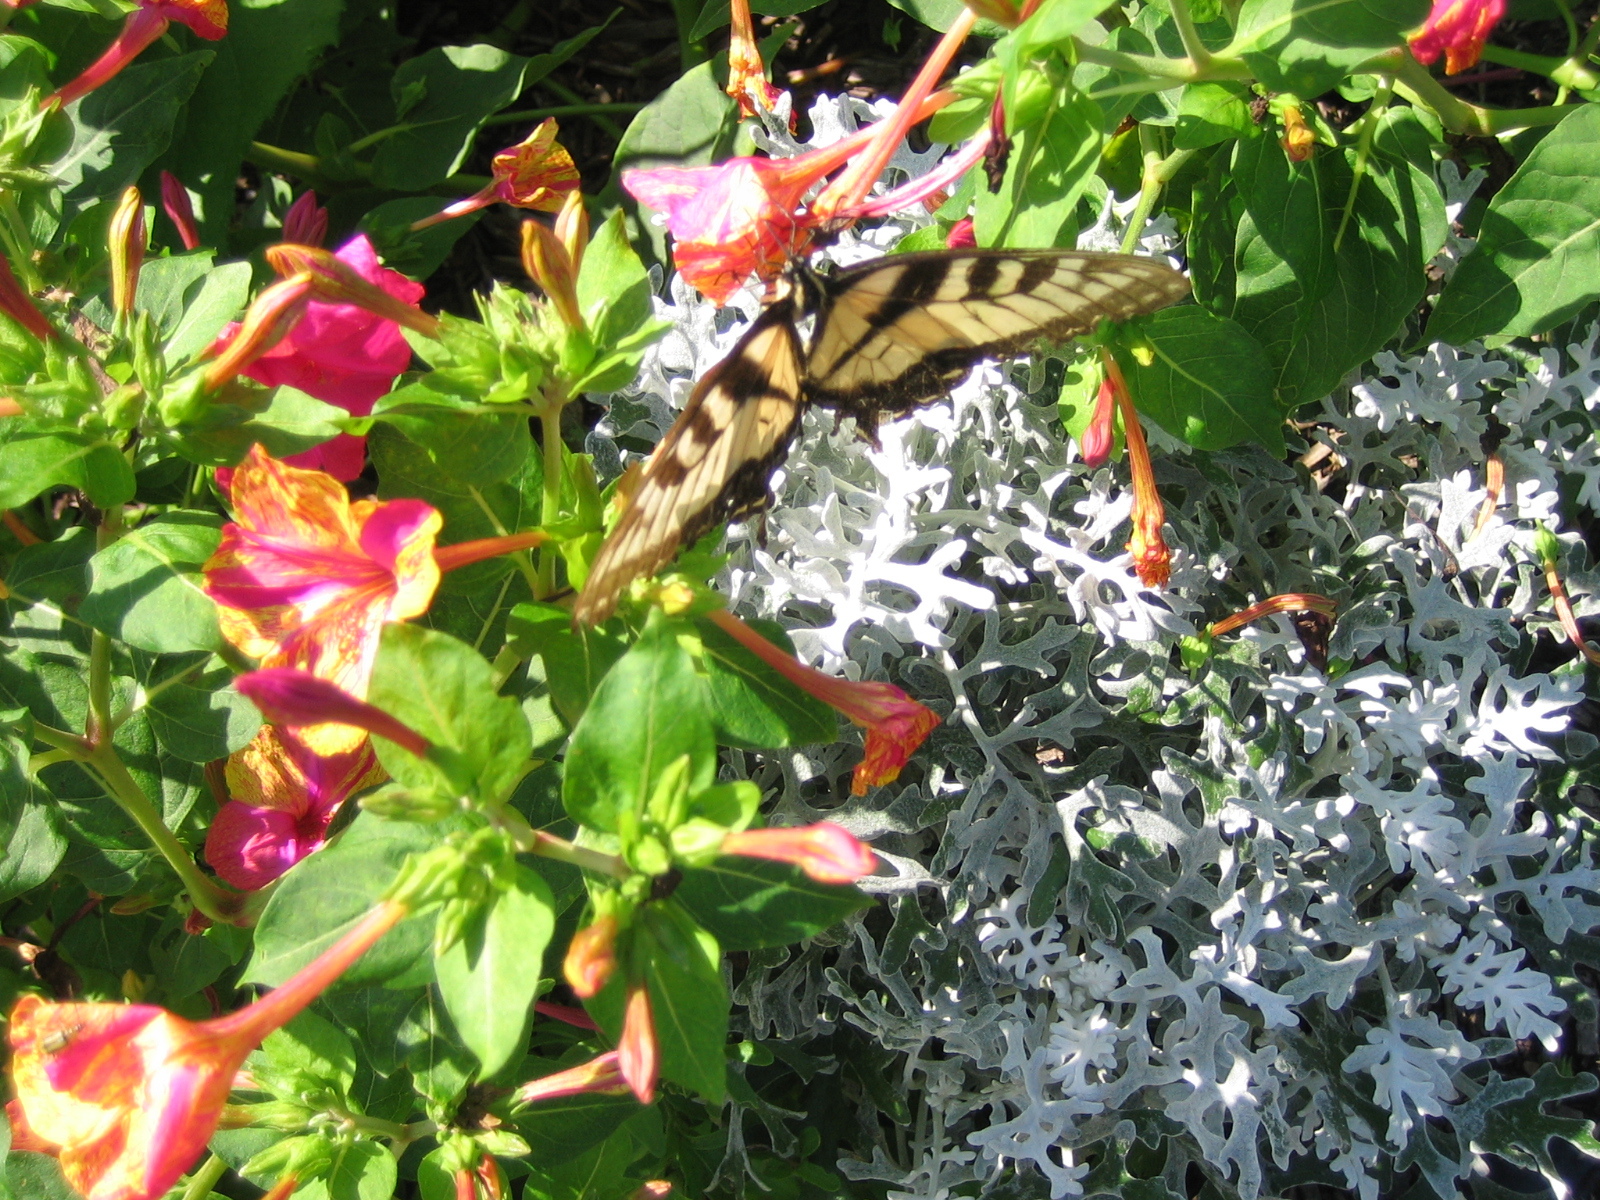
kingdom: Animalia
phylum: Arthropoda
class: Insecta
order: Lepidoptera
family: Papilionidae
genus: Papilio
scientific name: Papilio glaucus
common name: Tiger swallowtail
